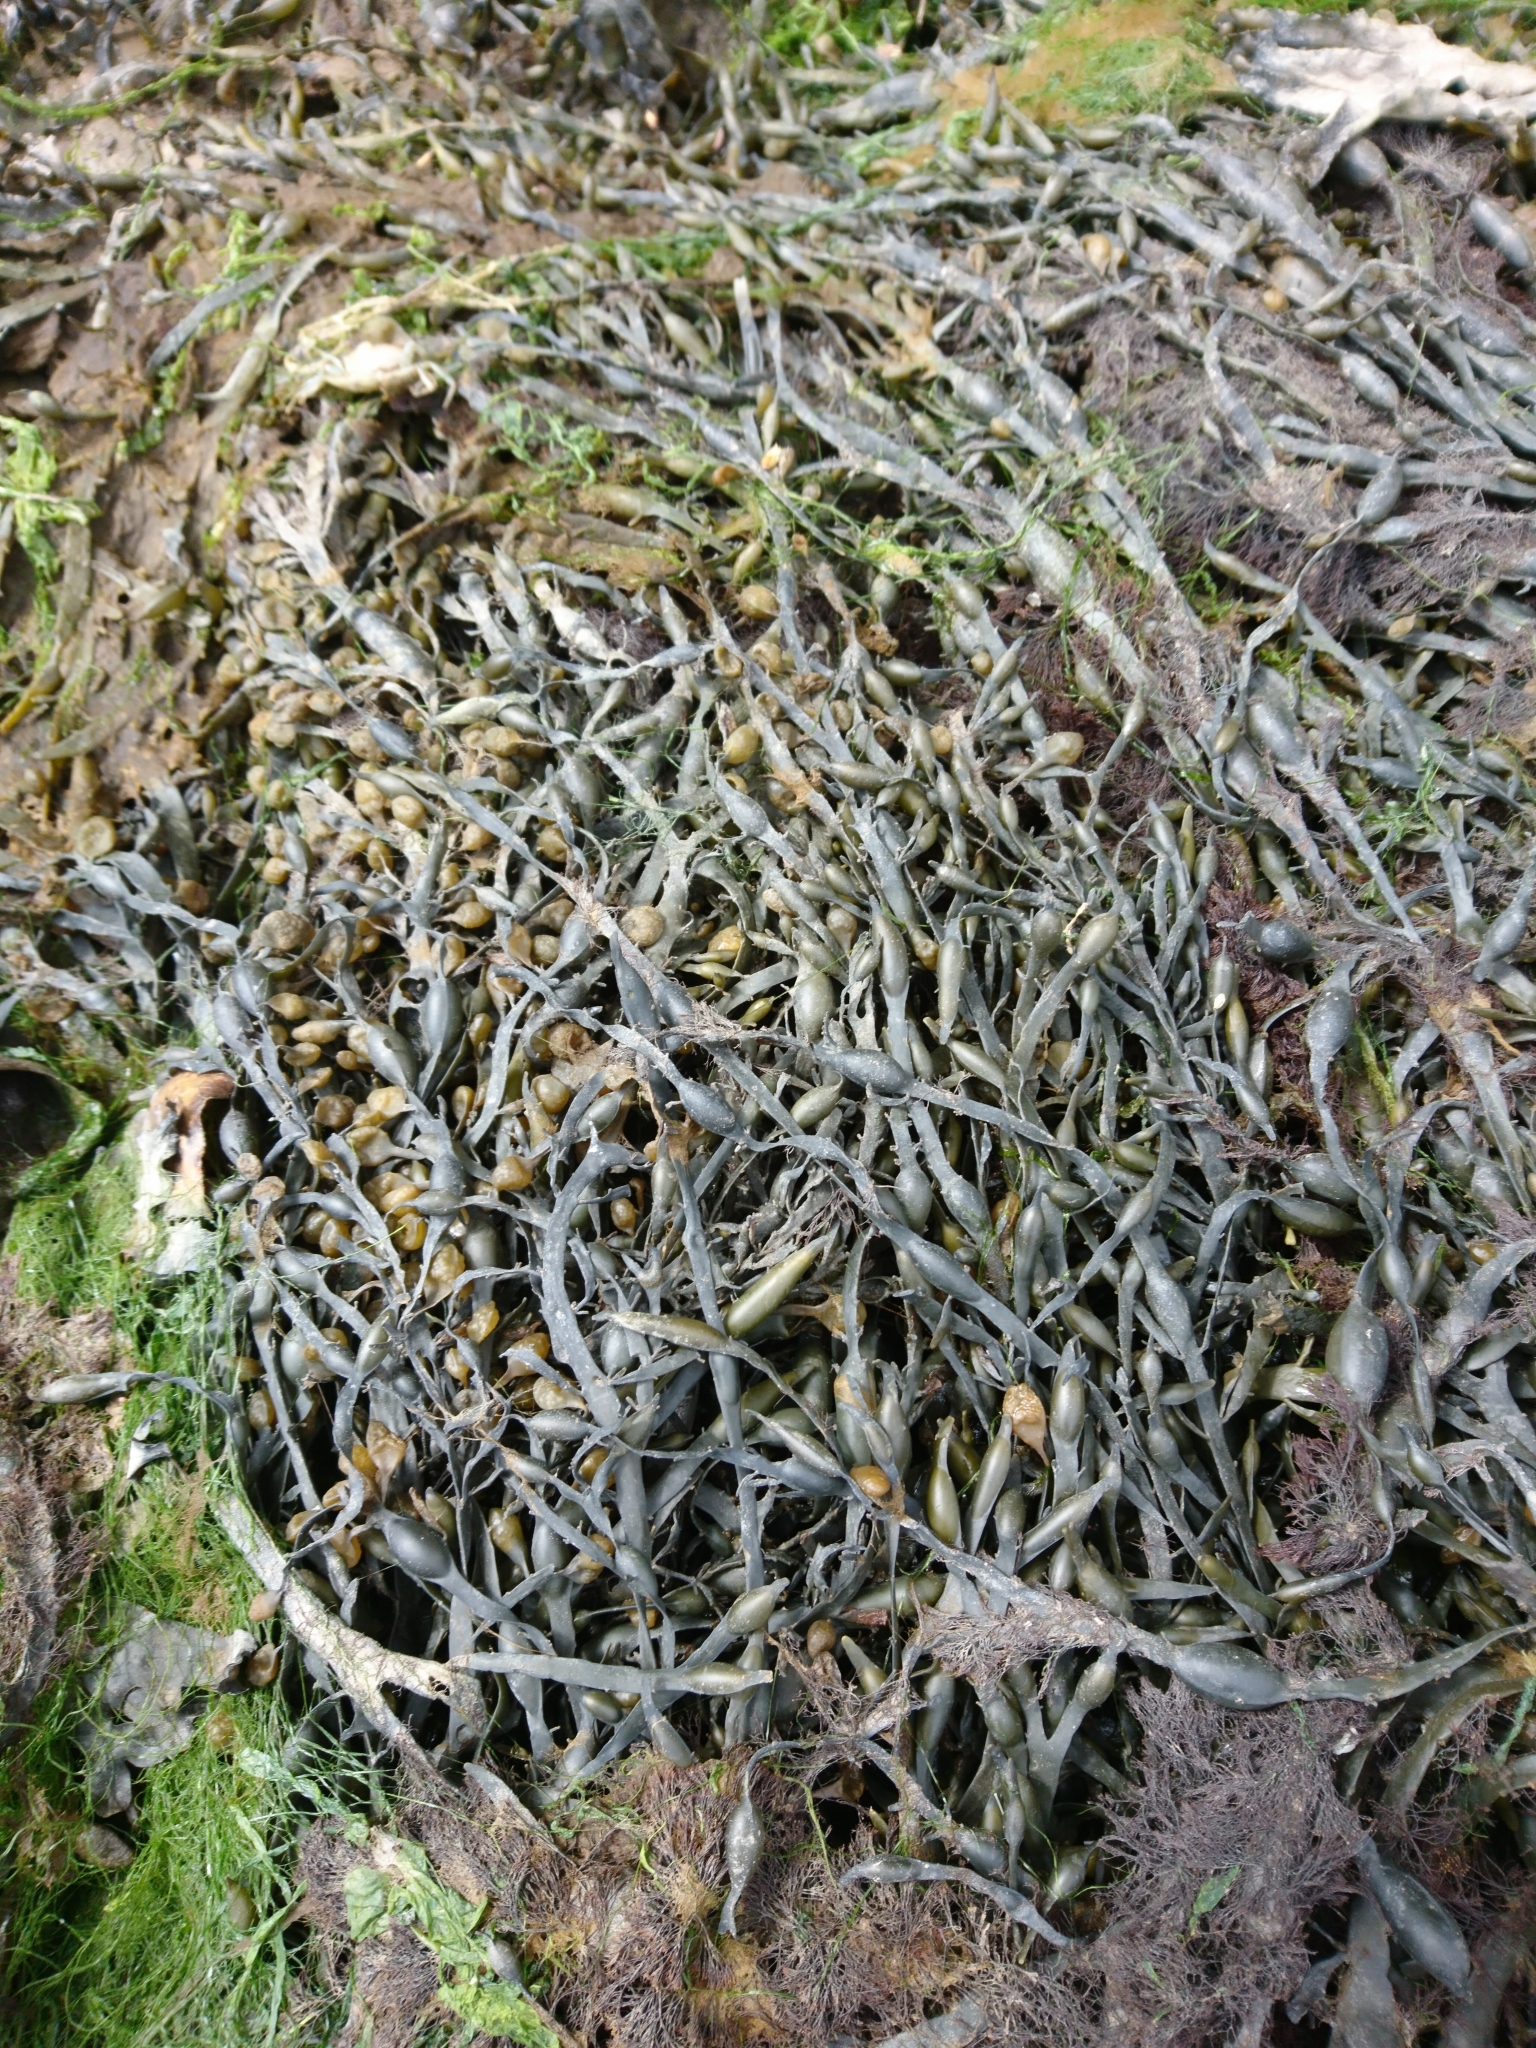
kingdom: Chromista
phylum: Ochrophyta
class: Phaeophyceae
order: Fucales
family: Fucaceae
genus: Ascophyllum
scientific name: Ascophyllum nodosum
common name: Knotted wrack
